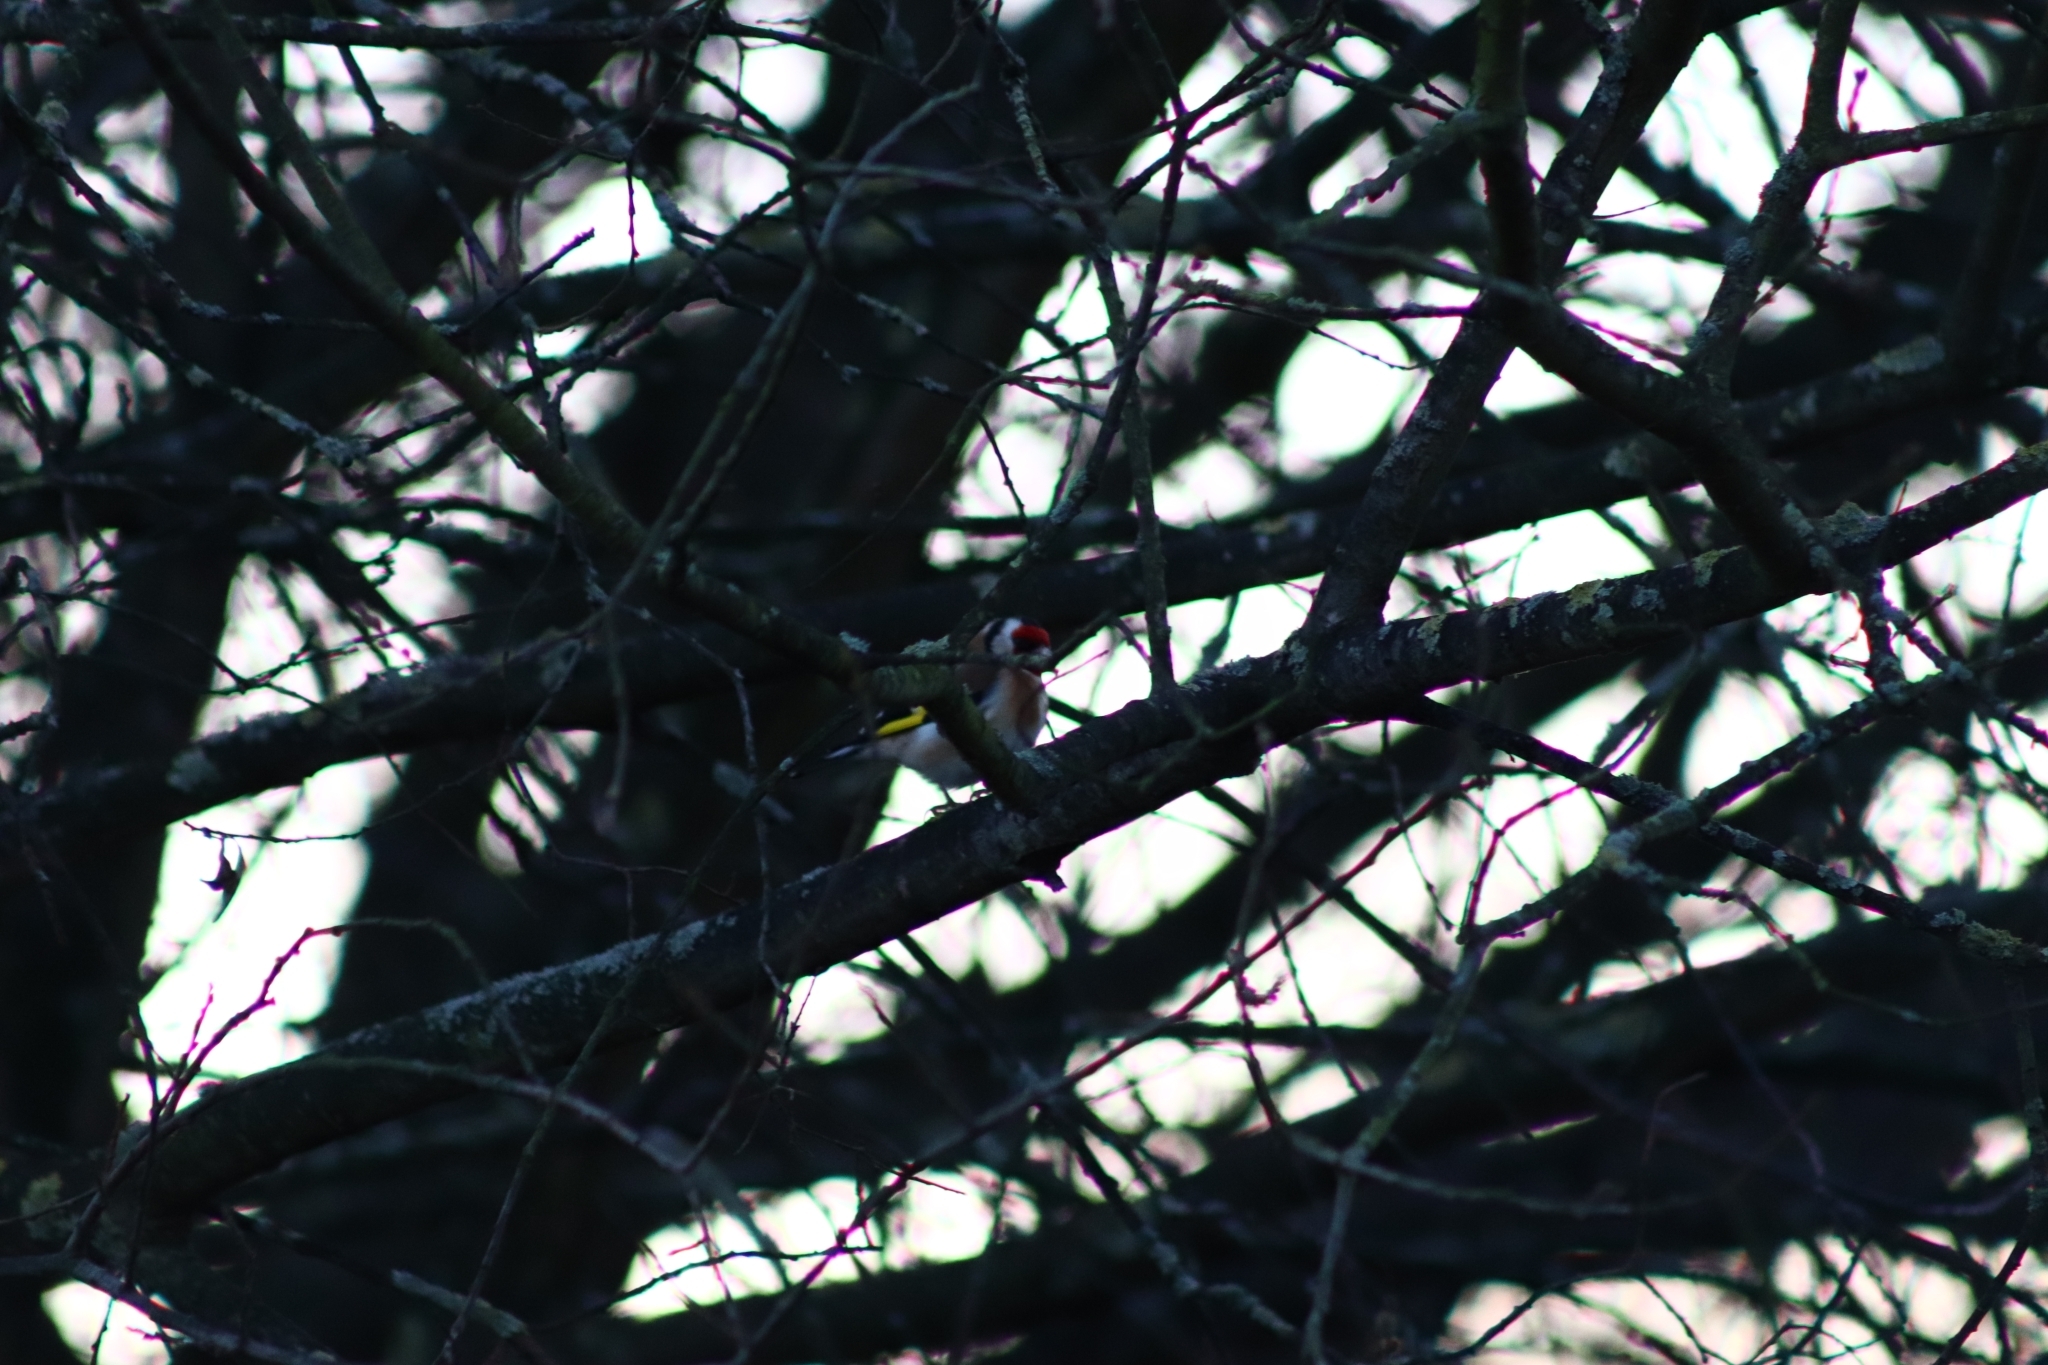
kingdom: Animalia
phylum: Chordata
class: Aves
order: Passeriformes
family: Fringillidae
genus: Carduelis
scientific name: Carduelis carduelis
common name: European goldfinch
